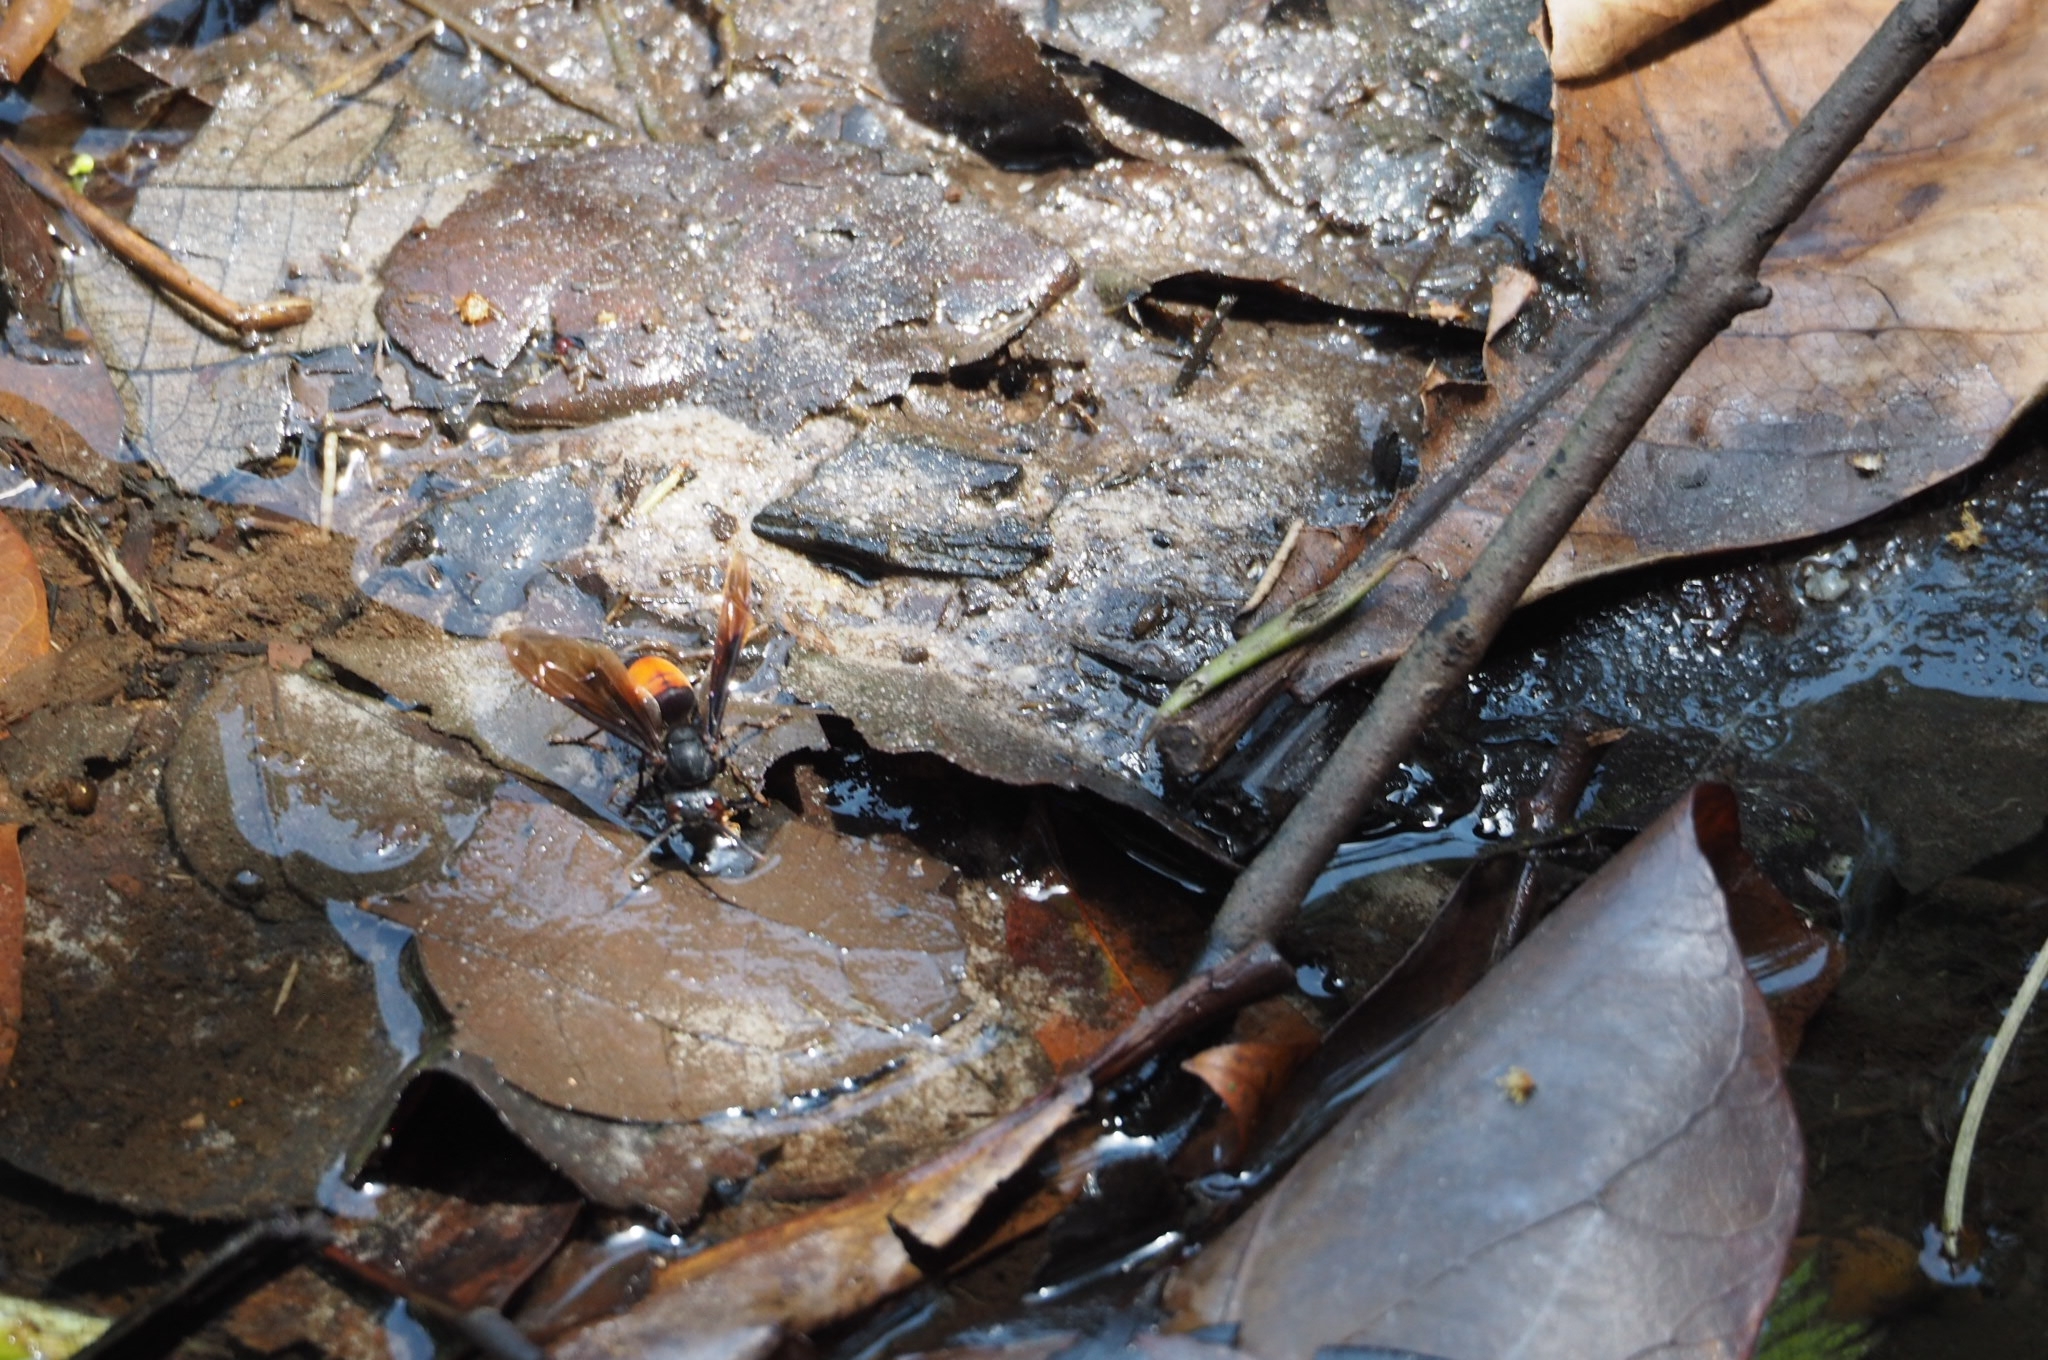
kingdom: Animalia
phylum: Arthropoda
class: Insecta
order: Hymenoptera
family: Vespidae
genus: Vespa
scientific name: Vespa affinis
